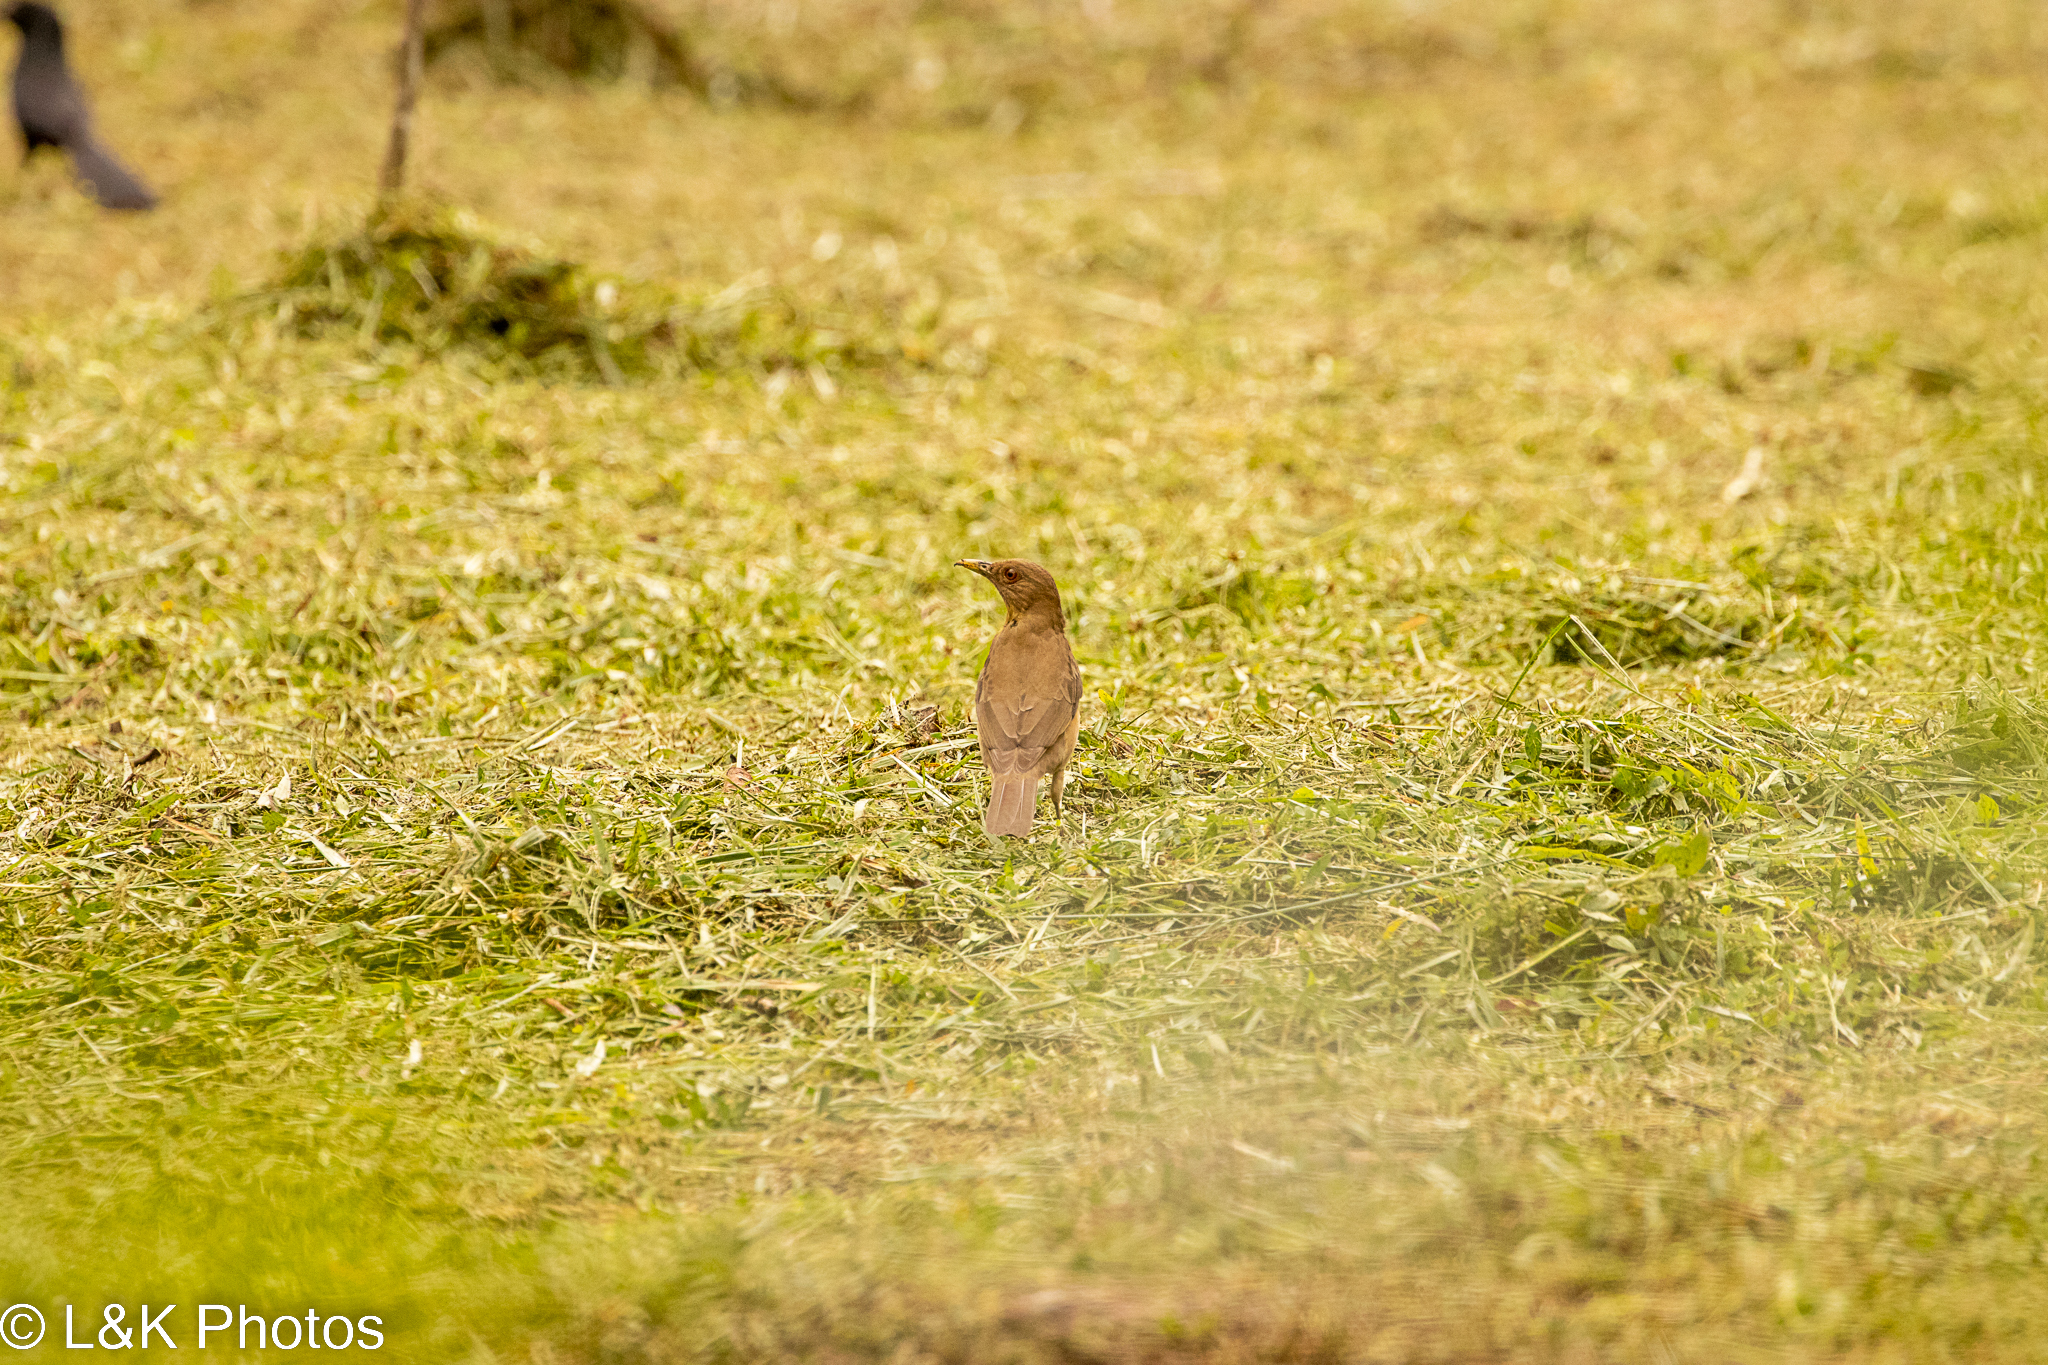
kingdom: Animalia
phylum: Chordata
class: Aves
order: Passeriformes
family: Turdidae
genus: Turdus
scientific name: Turdus grayi
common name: Clay-colored thrush
